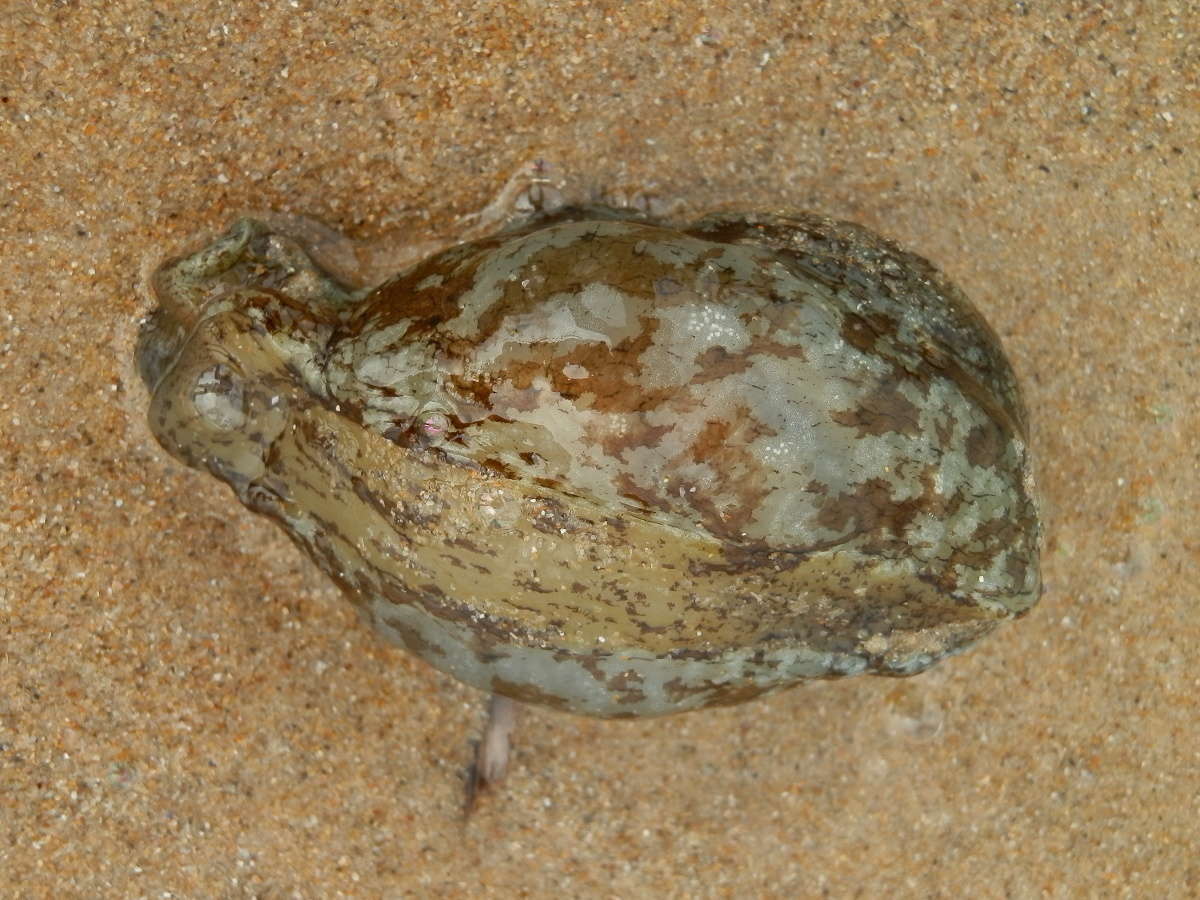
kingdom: Animalia
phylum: Mollusca
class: Gastropoda
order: Aplysiida
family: Aplysiidae
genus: Aplysia
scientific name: Aplysia sydneyensis
